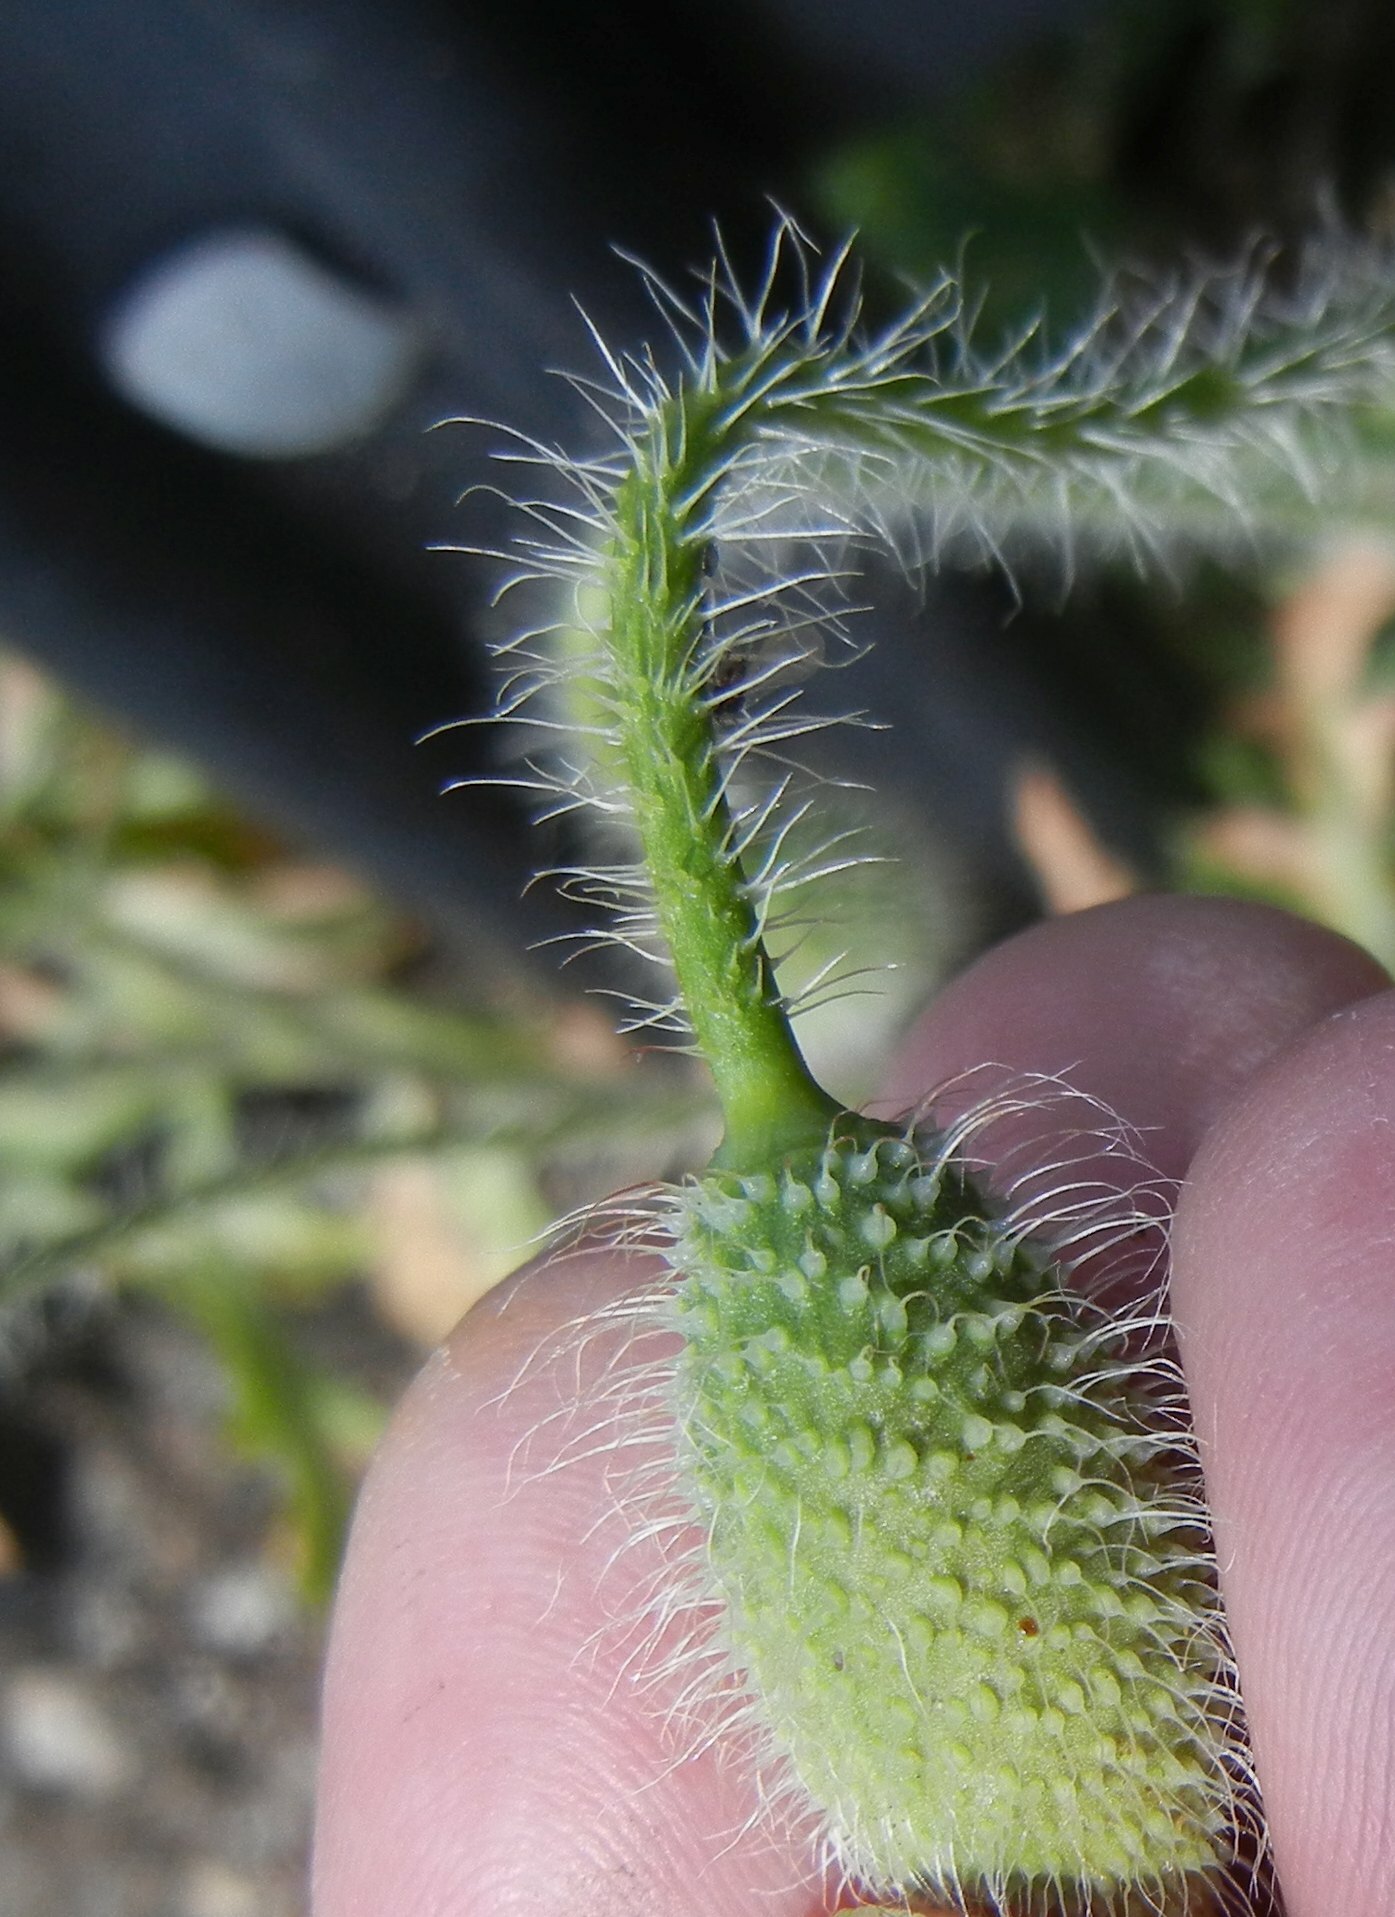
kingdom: Plantae
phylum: Tracheophyta
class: Magnoliopsida
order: Ranunculales
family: Papaveraceae
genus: Papaver
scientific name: Papaver rhoeas
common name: Corn poppy
